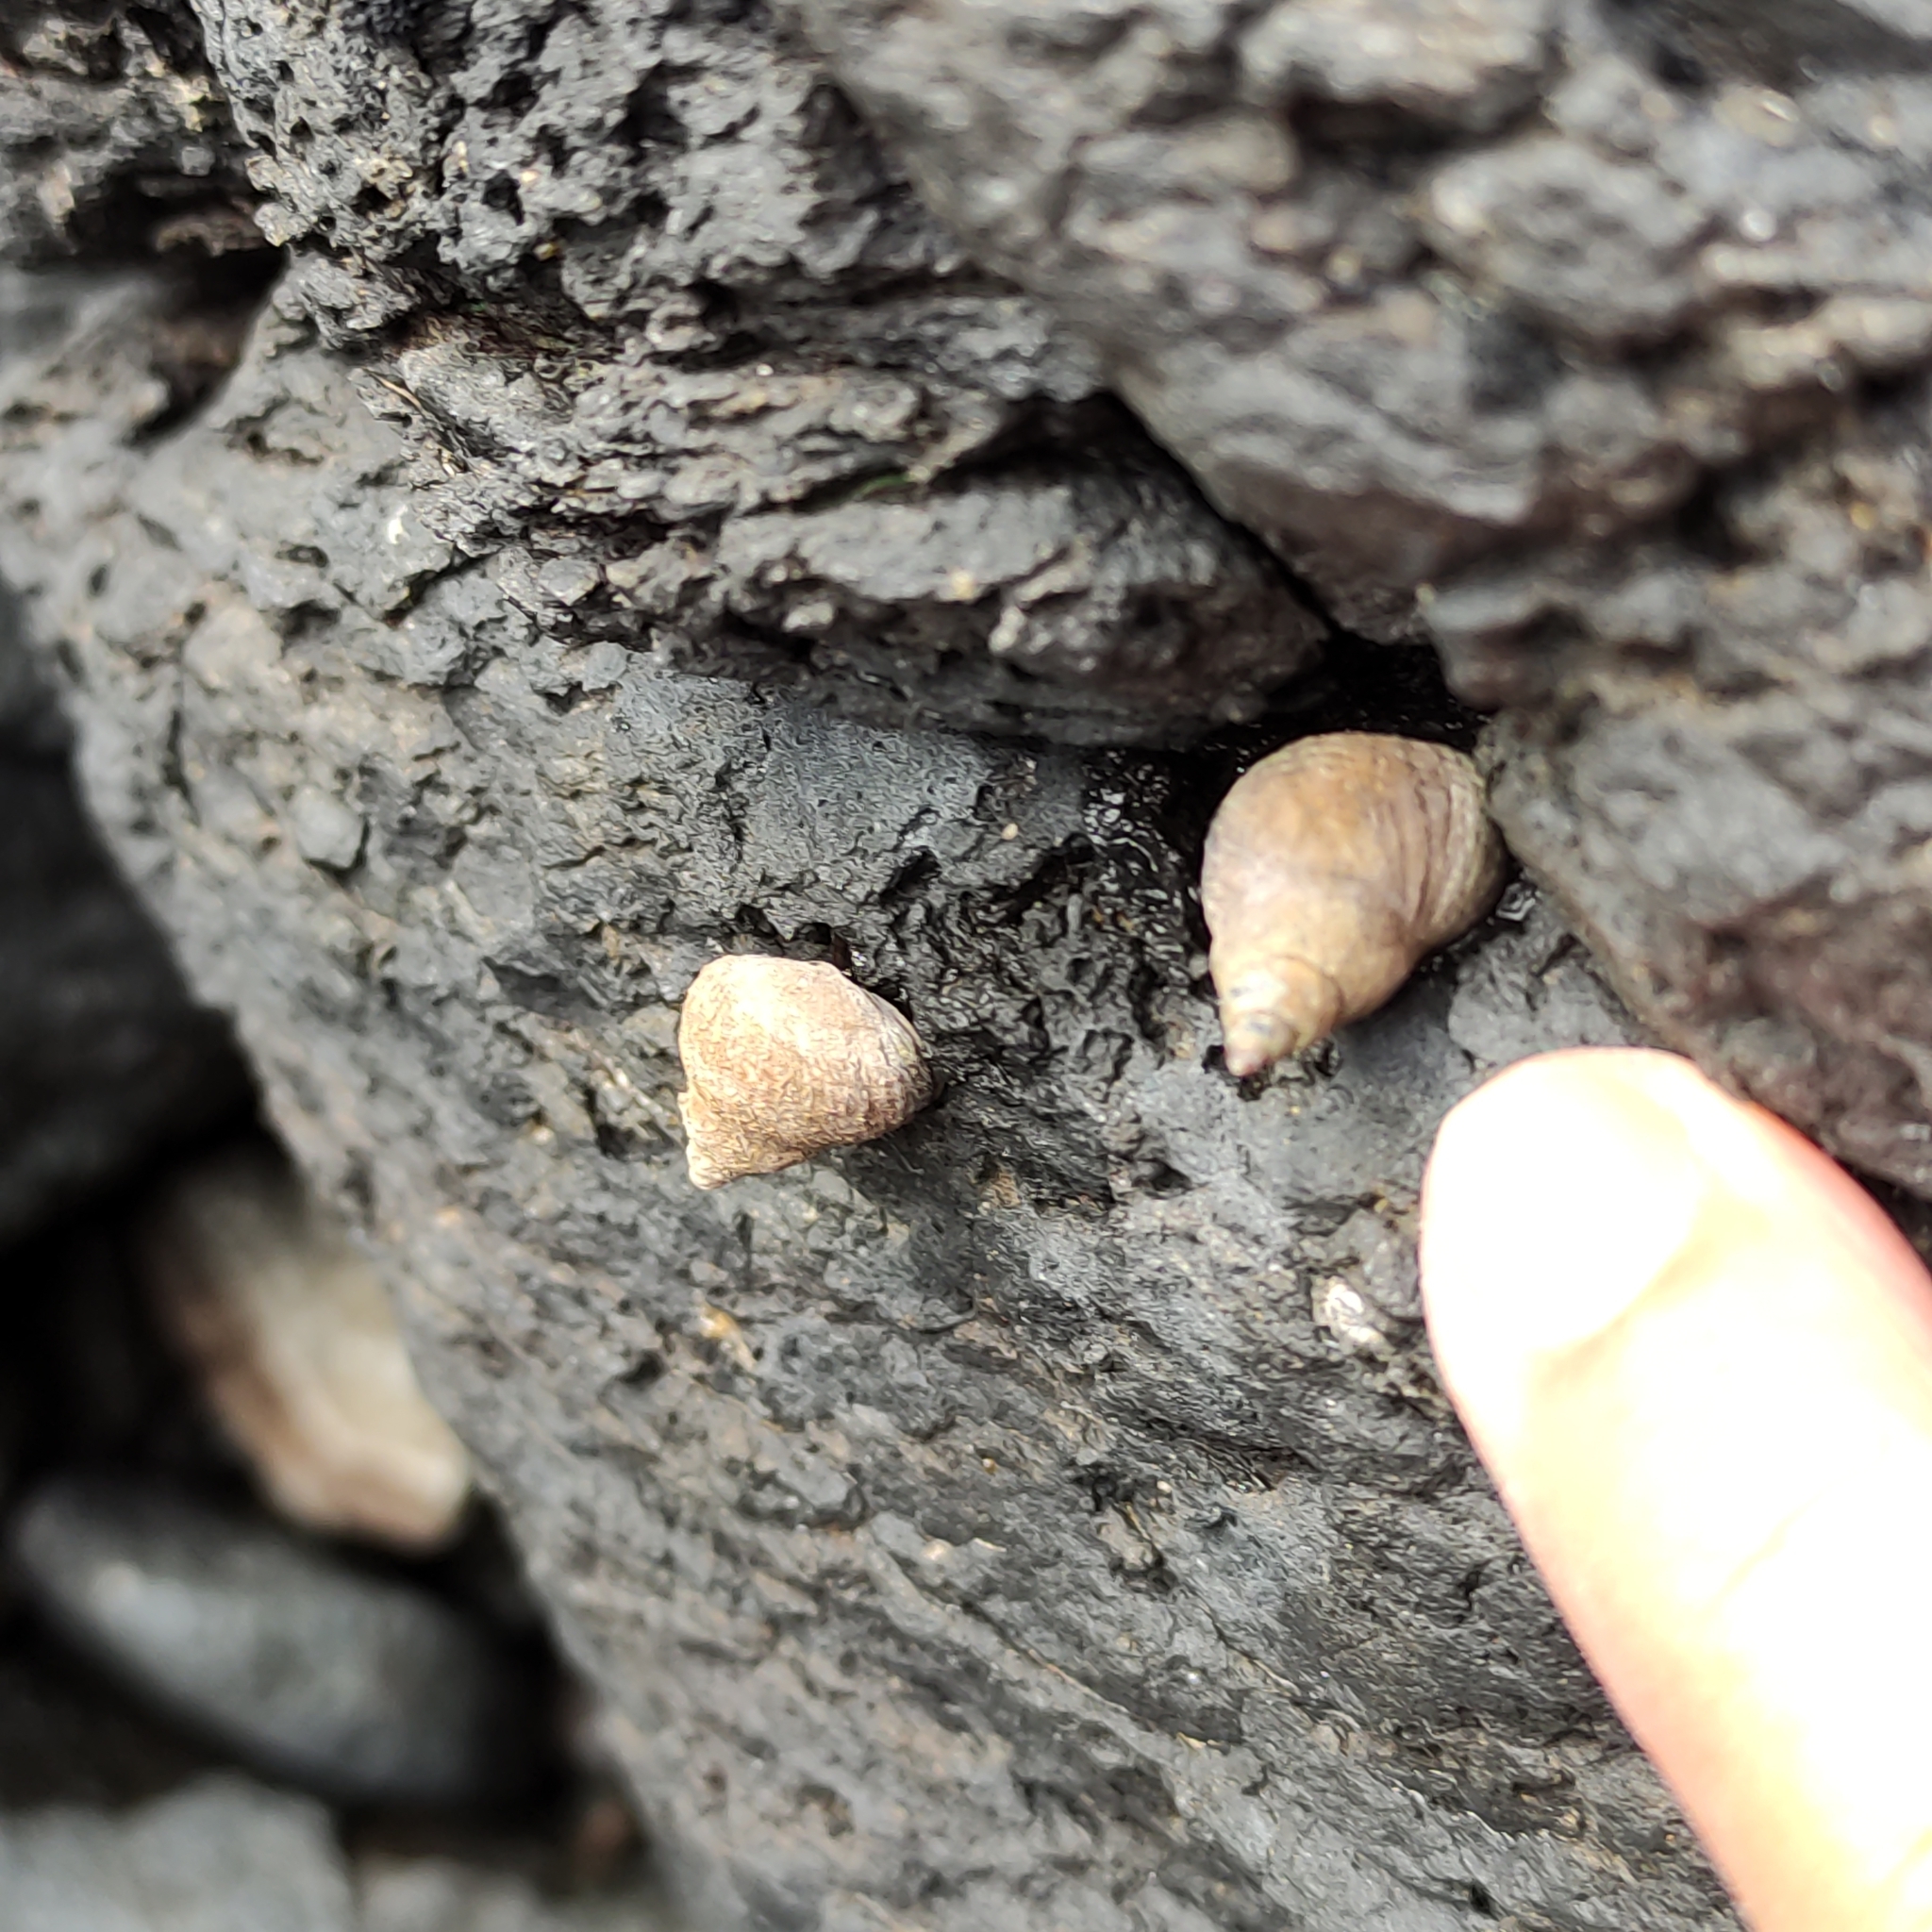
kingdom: Animalia
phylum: Mollusca
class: Gastropoda
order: Littorinimorpha
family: Littorinidae
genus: Austrolittorina
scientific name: Austrolittorina cincta
